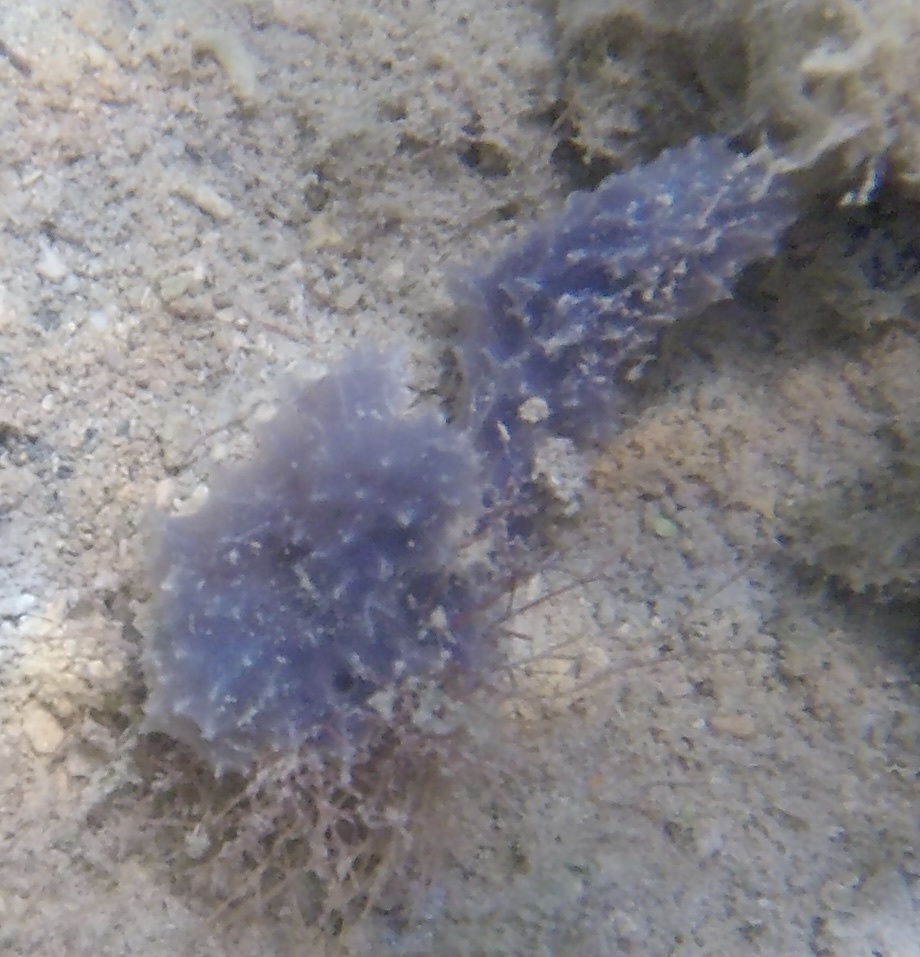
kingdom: Animalia
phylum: Porifera
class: Demospongiae
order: Dictyoceratida
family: Dysideidae
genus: Dysidea
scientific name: Dysidea etheria
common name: Heavenly sponge
